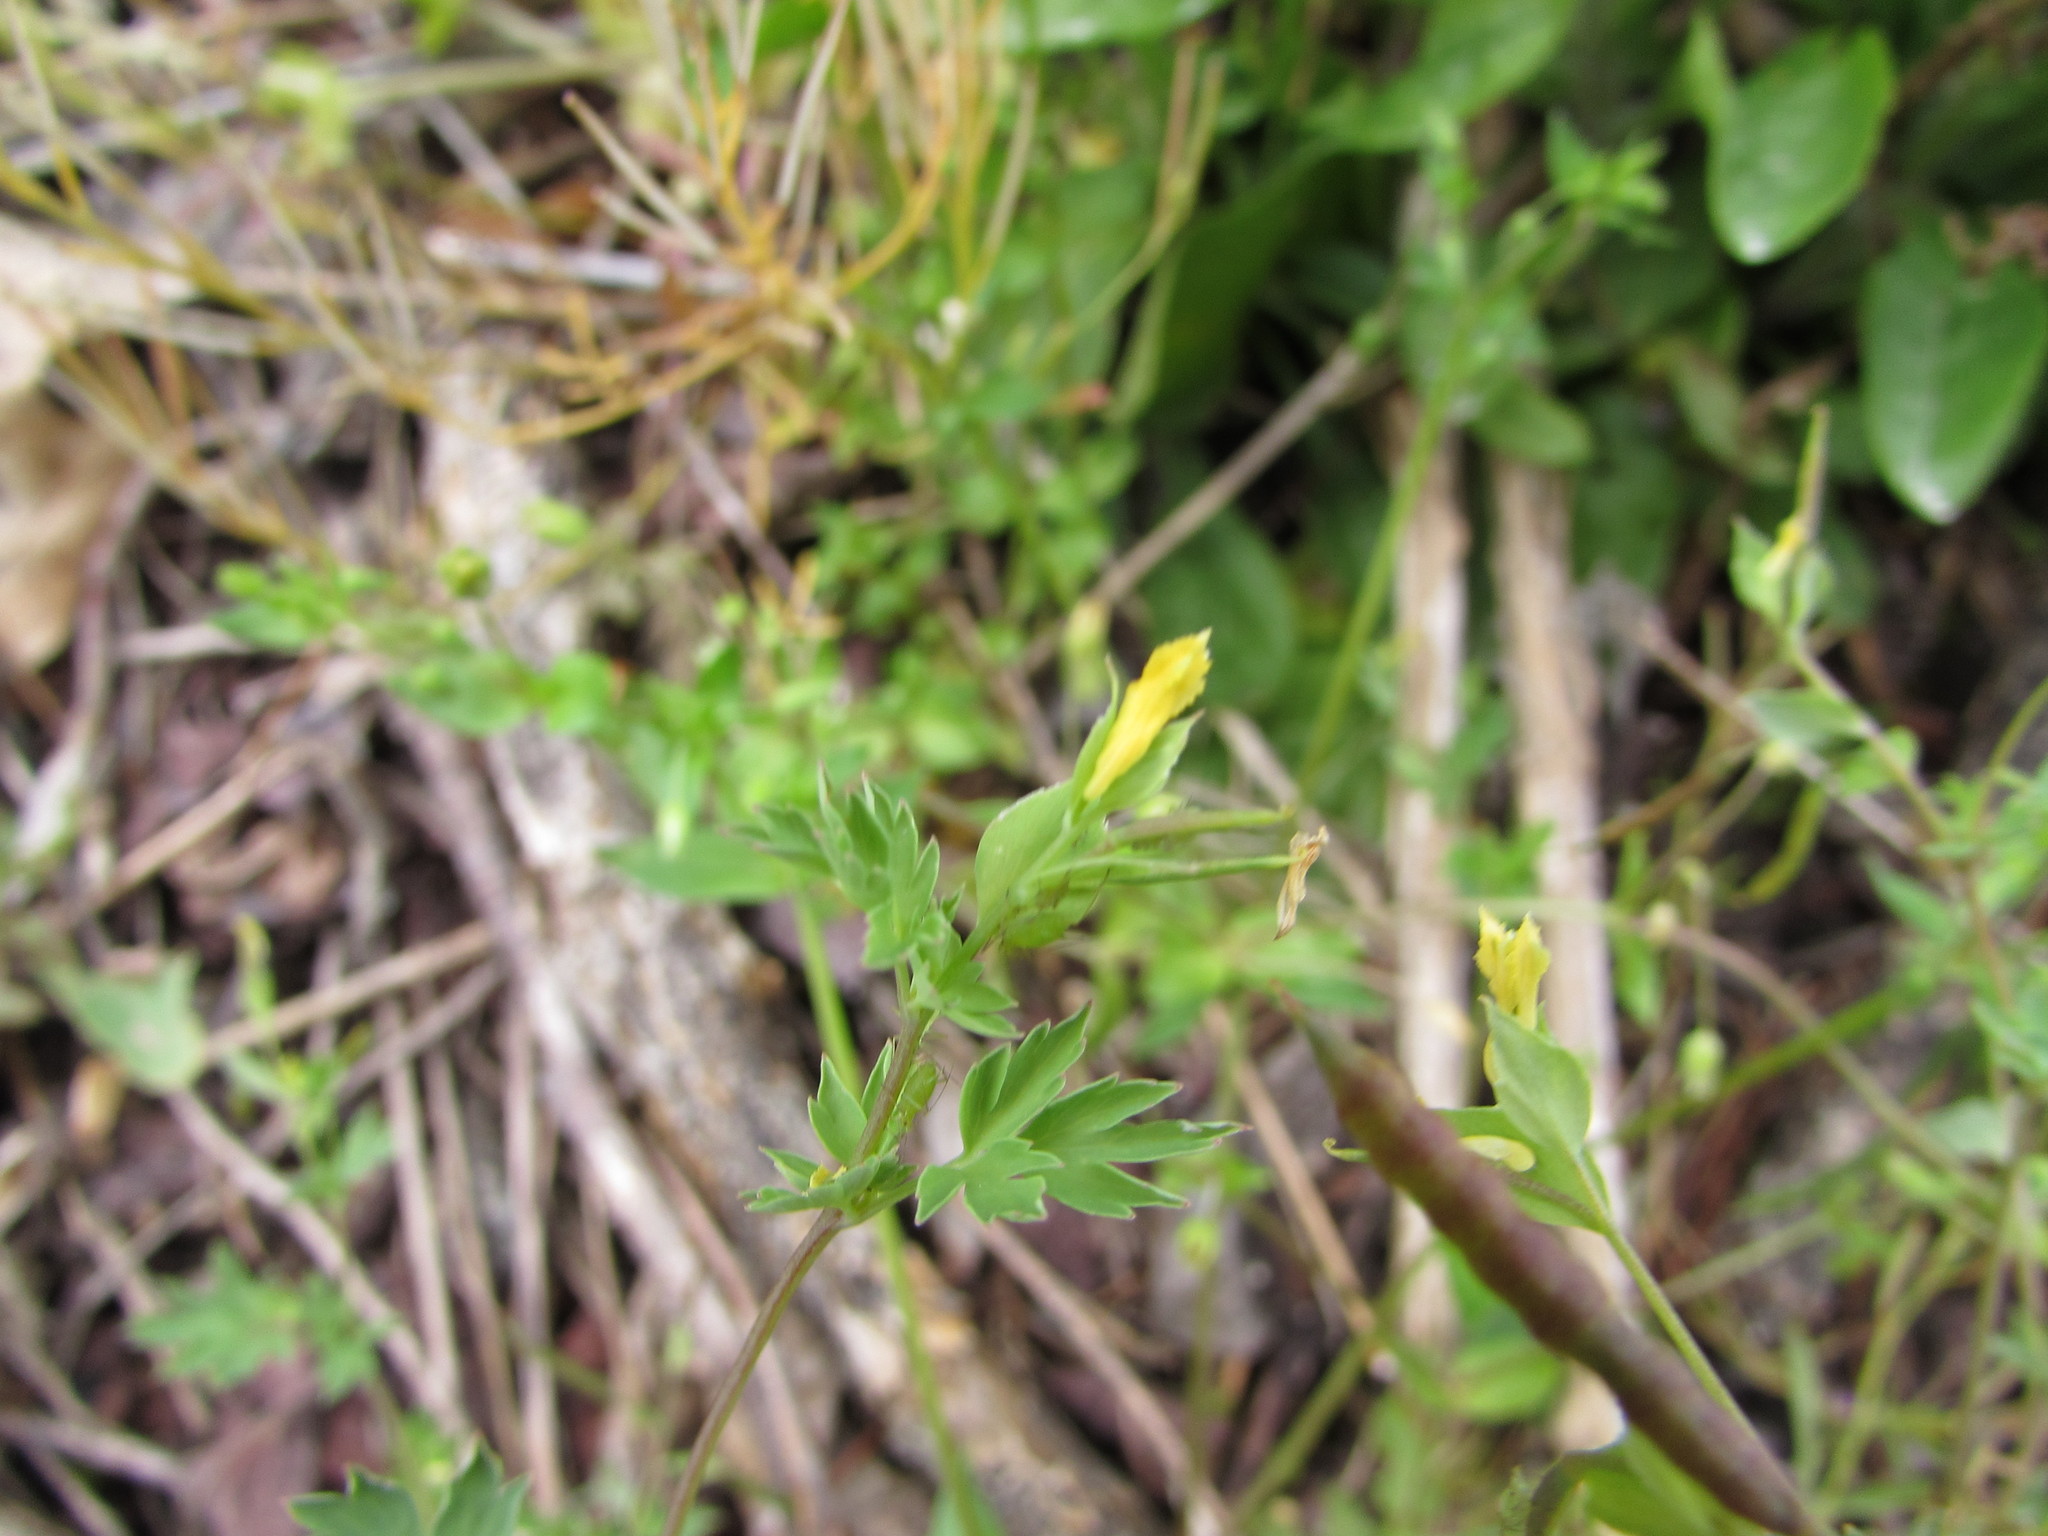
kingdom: Plantae
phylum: Tracheophyta
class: Magnoliopsida
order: Ranunculales
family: Papaveraceae
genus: Corydalis
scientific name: Corydalis flavula
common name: Yellow corydalis
